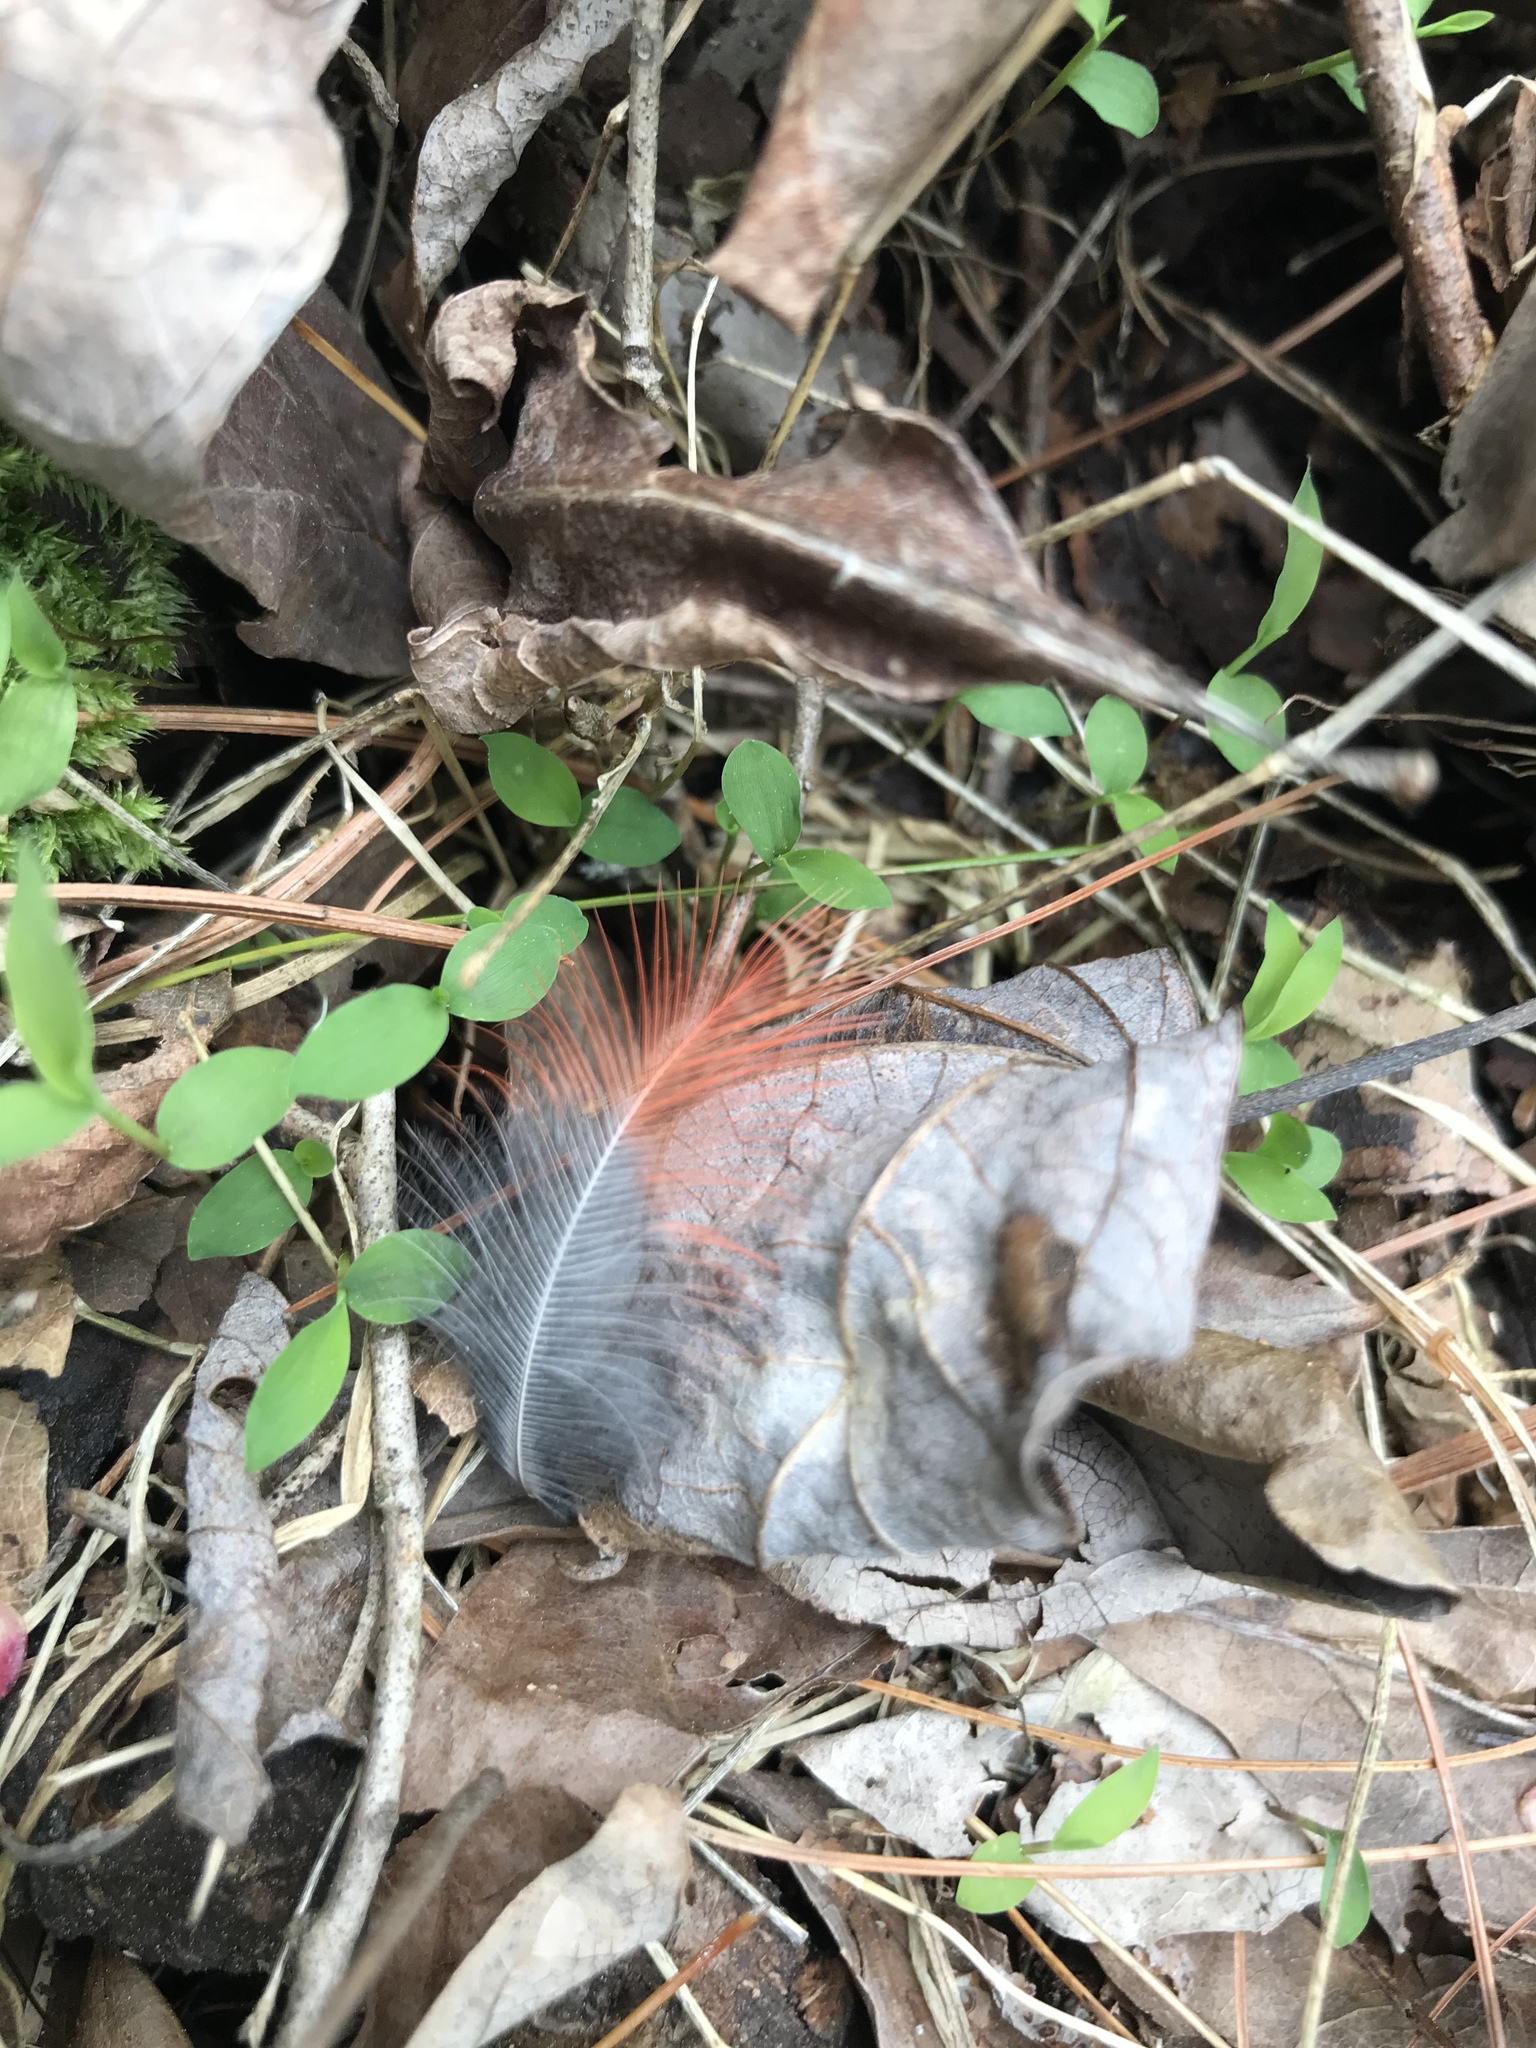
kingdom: Animalia
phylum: Chordata
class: Aves
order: Passeriformes
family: Cardinalidae
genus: Cardinalis
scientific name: Cardinalis cardinalis
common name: Northern cardinal
